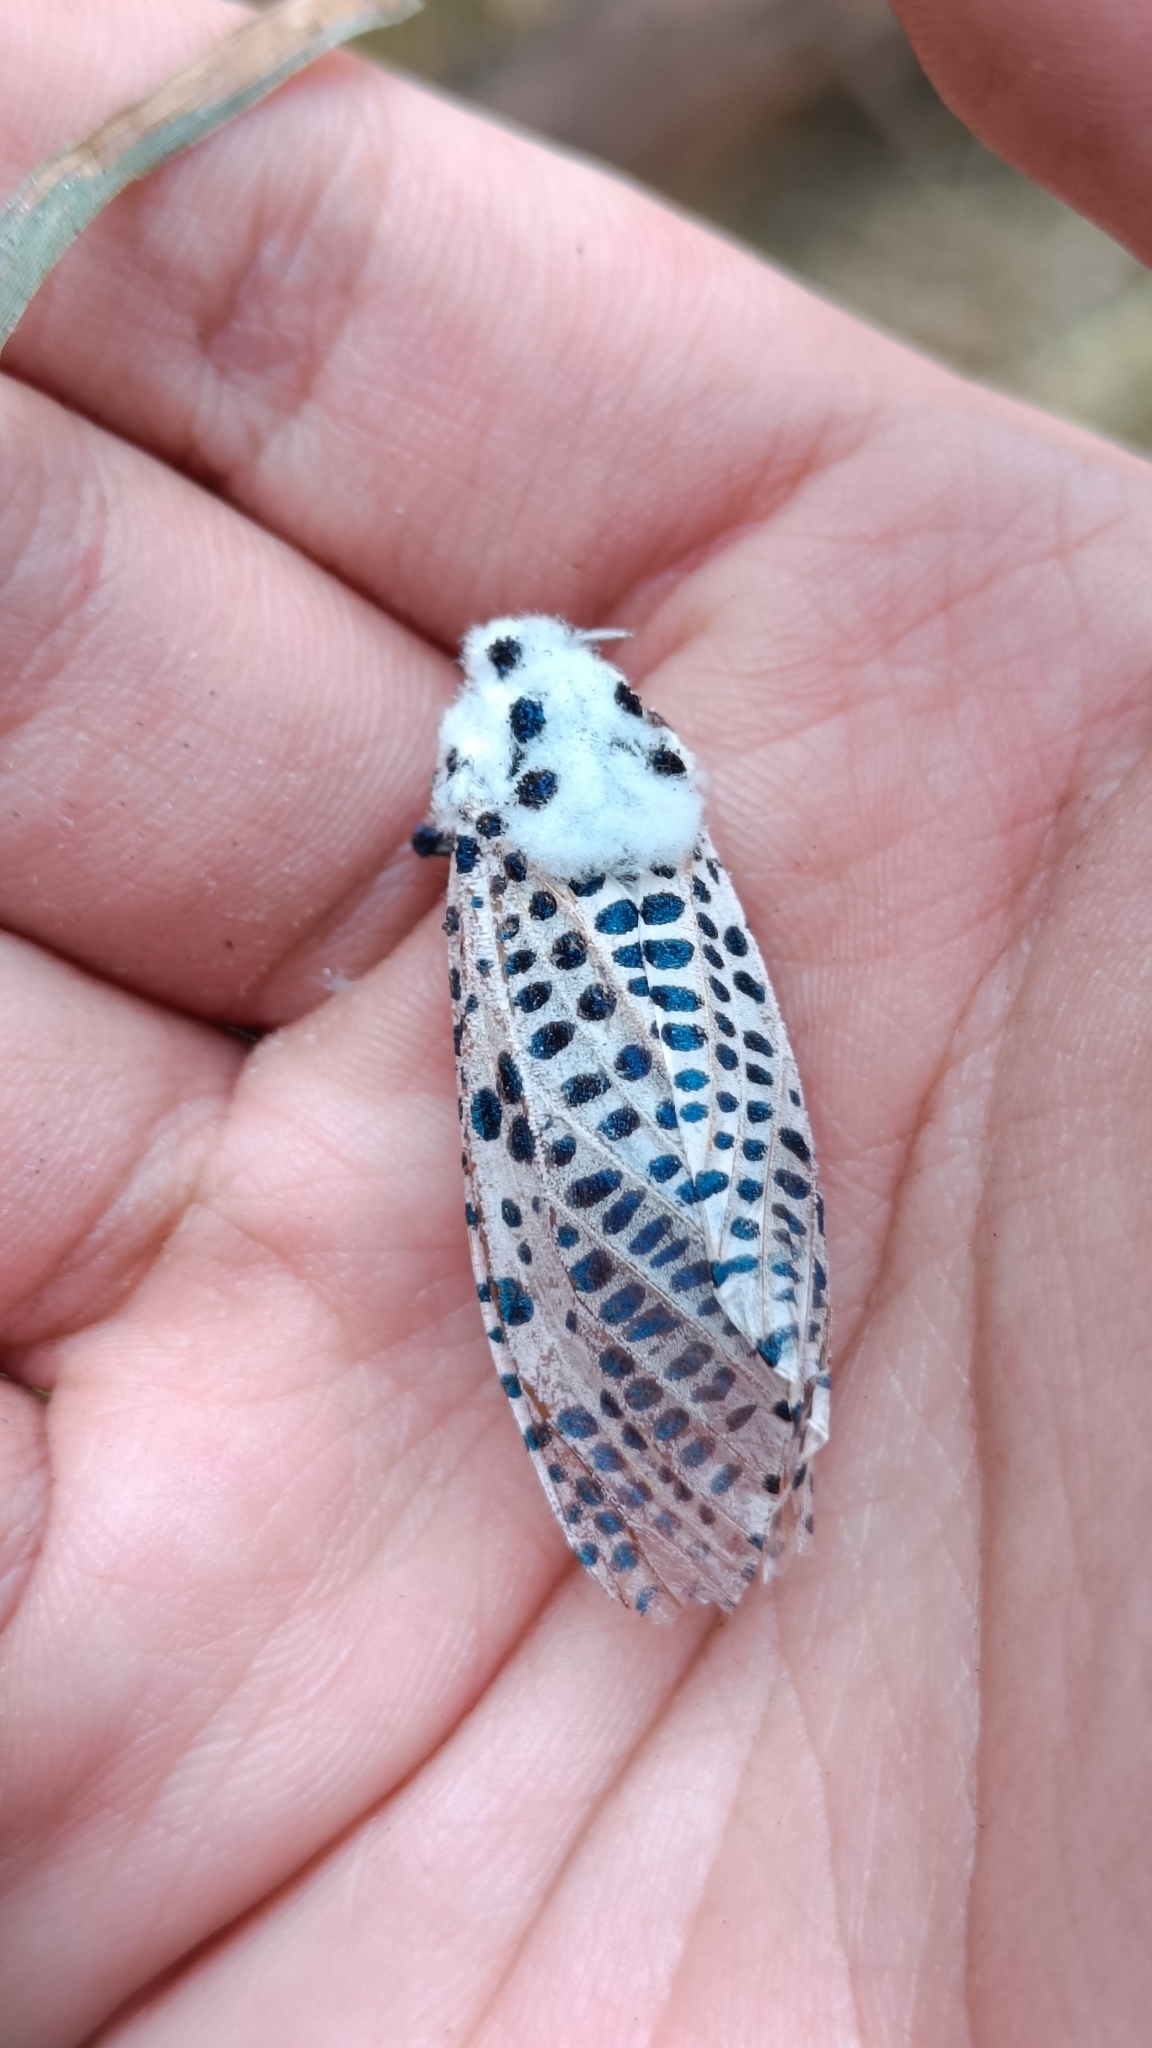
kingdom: Animalia
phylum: Arthropoda
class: Insecta
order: Lepidoptera
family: Cossidae
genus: Zeuzera
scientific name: Zeuzera pyrina
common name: Leopard moth
